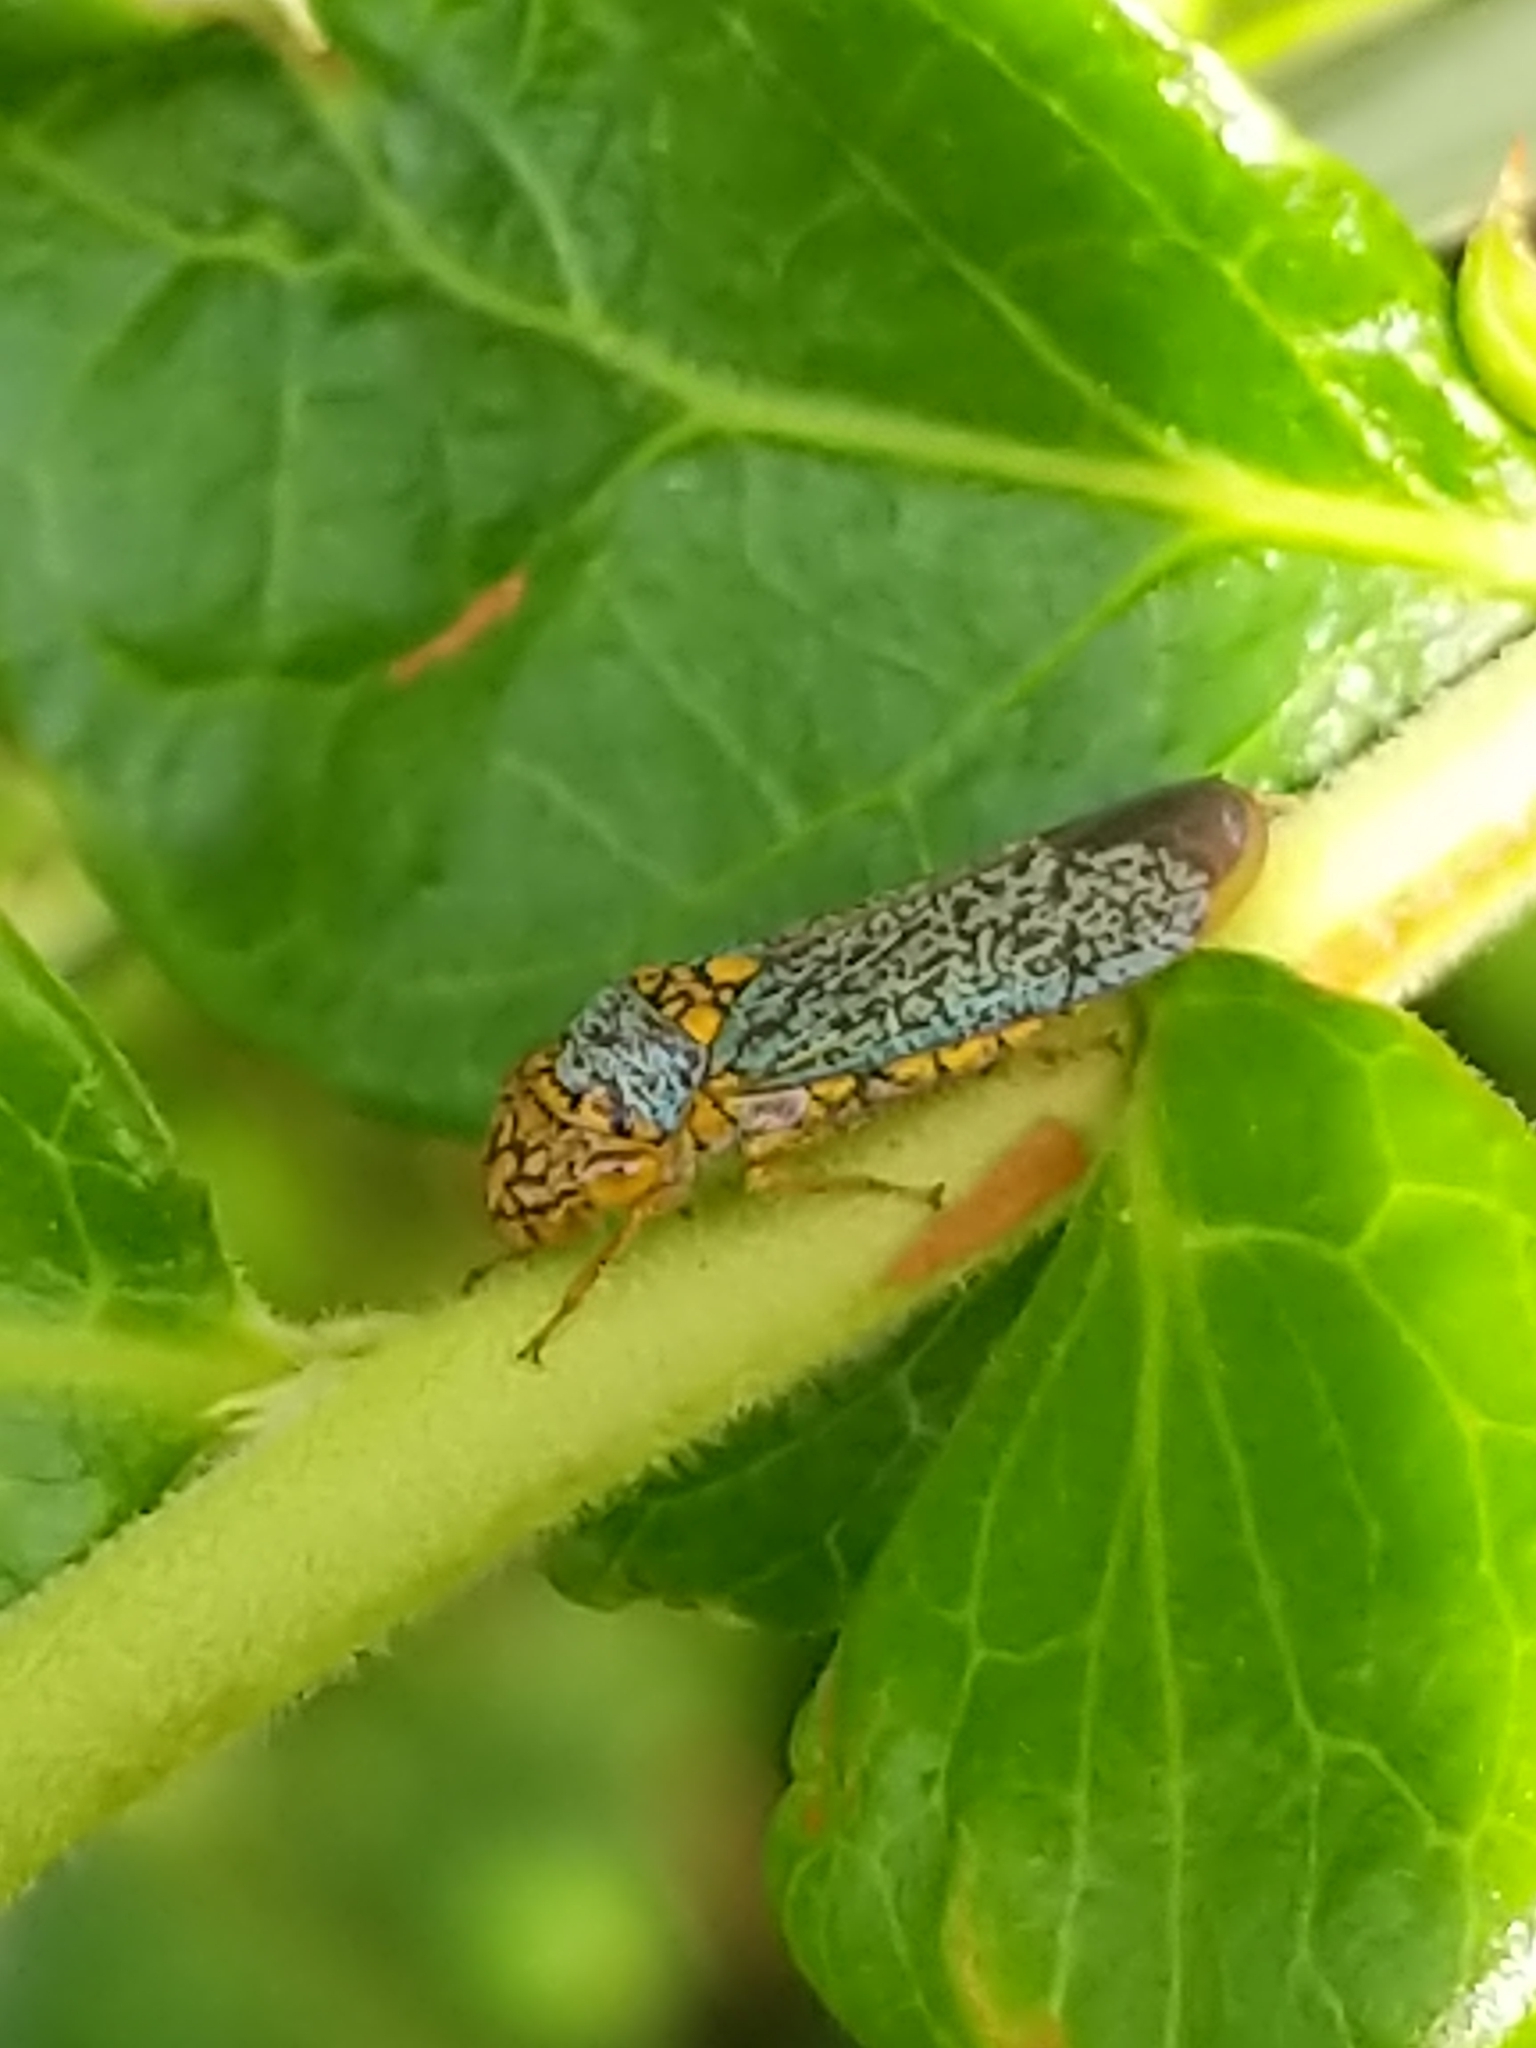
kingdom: Animalia
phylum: Arthropoda
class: Insecta
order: Hemiptera
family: Cicadellidae
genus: Oncometopia
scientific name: Oncometopia orbona
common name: Broad-headed sharpshooter
